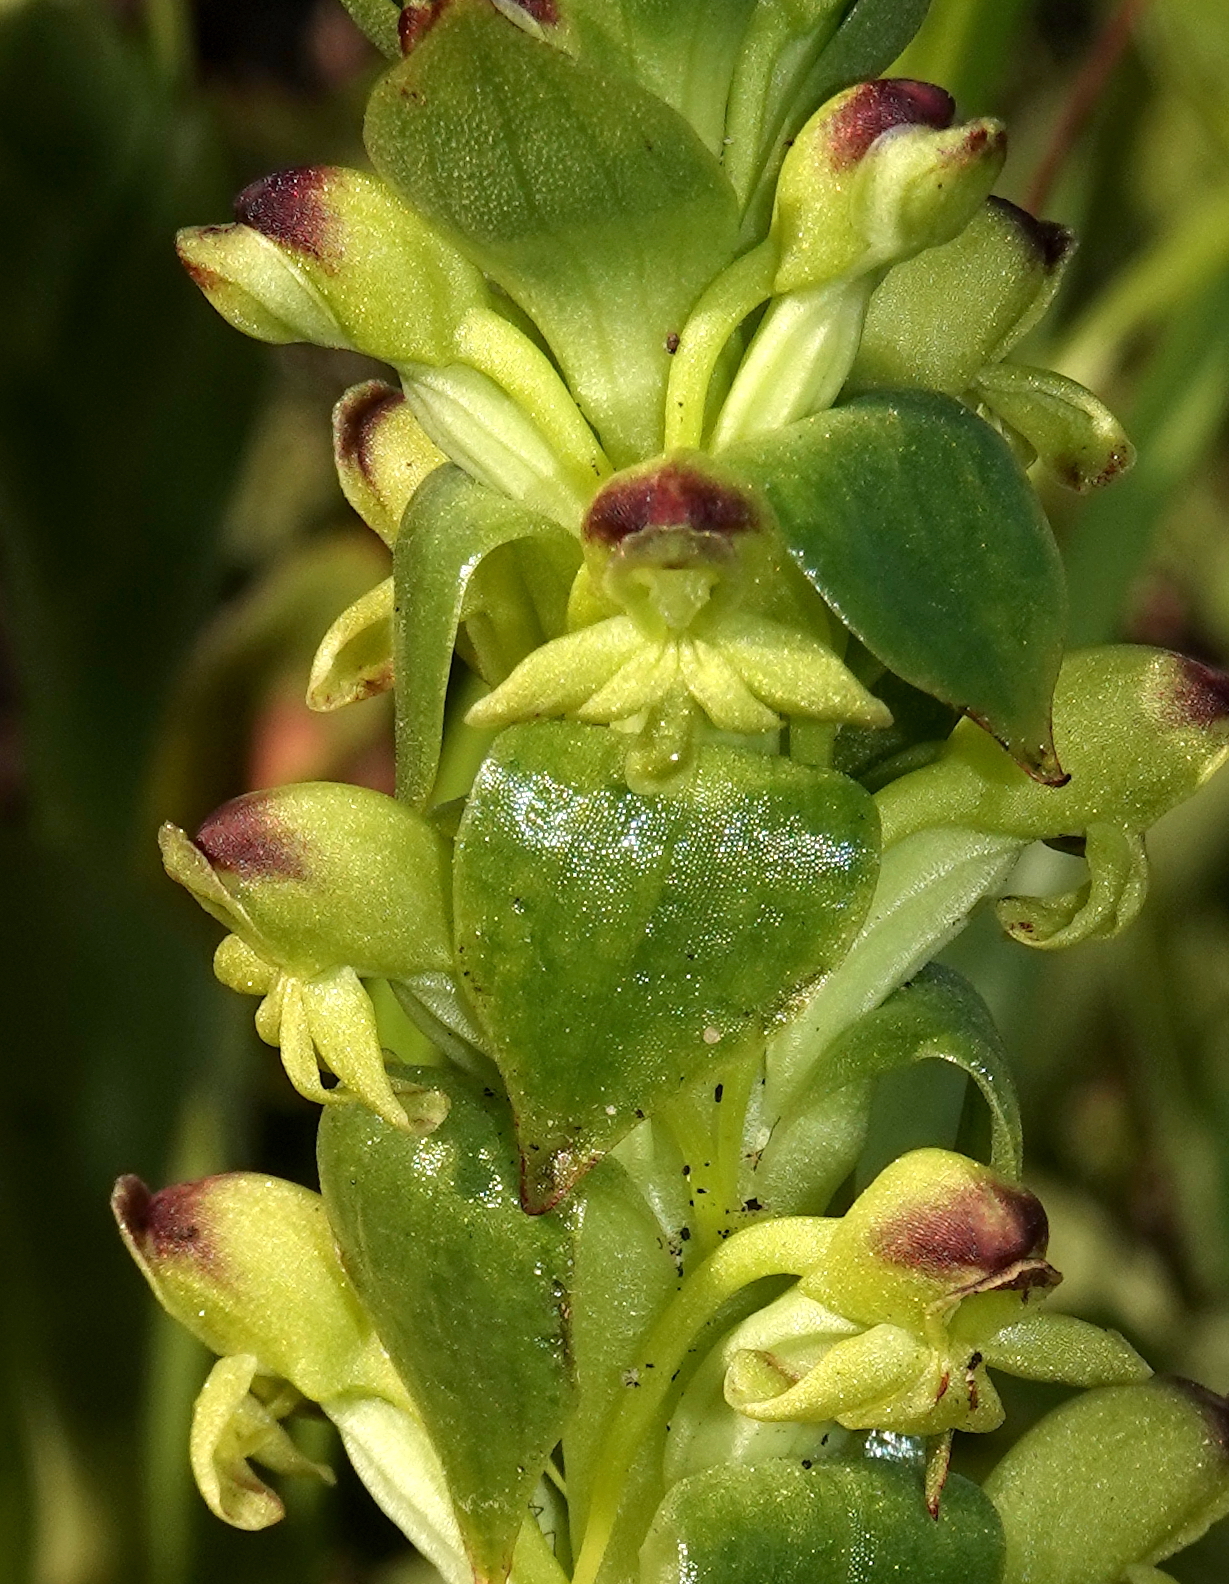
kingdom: Plantae
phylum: Tracheophyta
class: Liliopsida
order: Asparagales
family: Orchidaceae
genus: Satyrium
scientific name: Satyrium odorum
